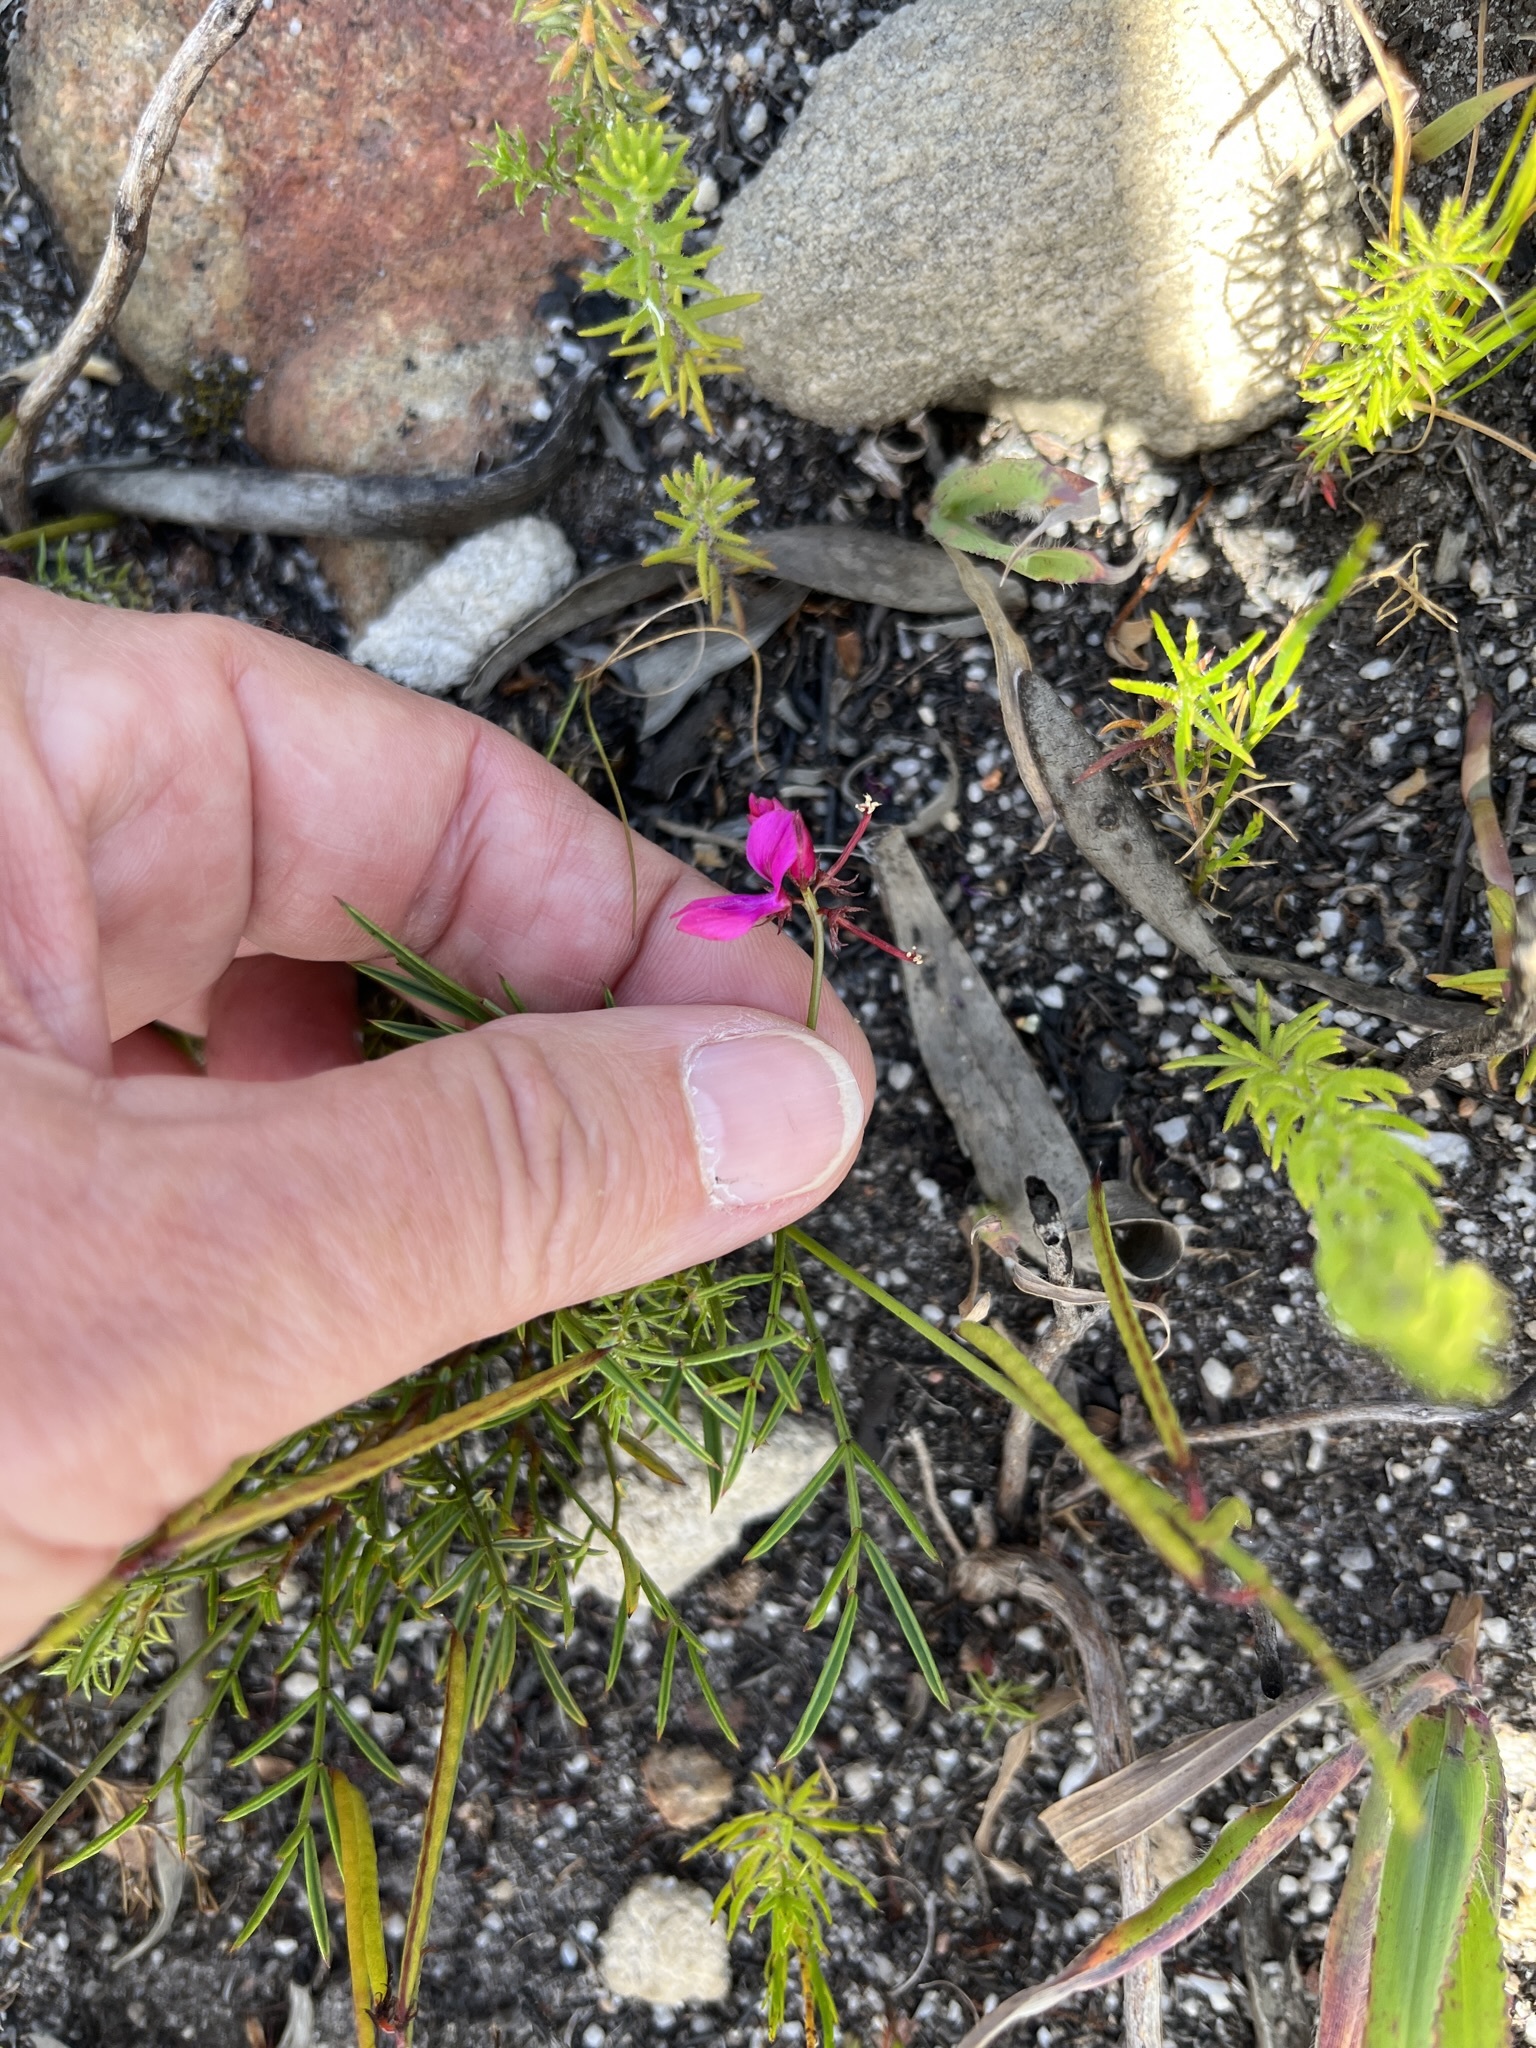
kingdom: Plantae
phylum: Tracheophyta
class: Magnoliopsida
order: Fabales
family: Fabaceae
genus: Indigofera
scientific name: Indigofera capillaris
